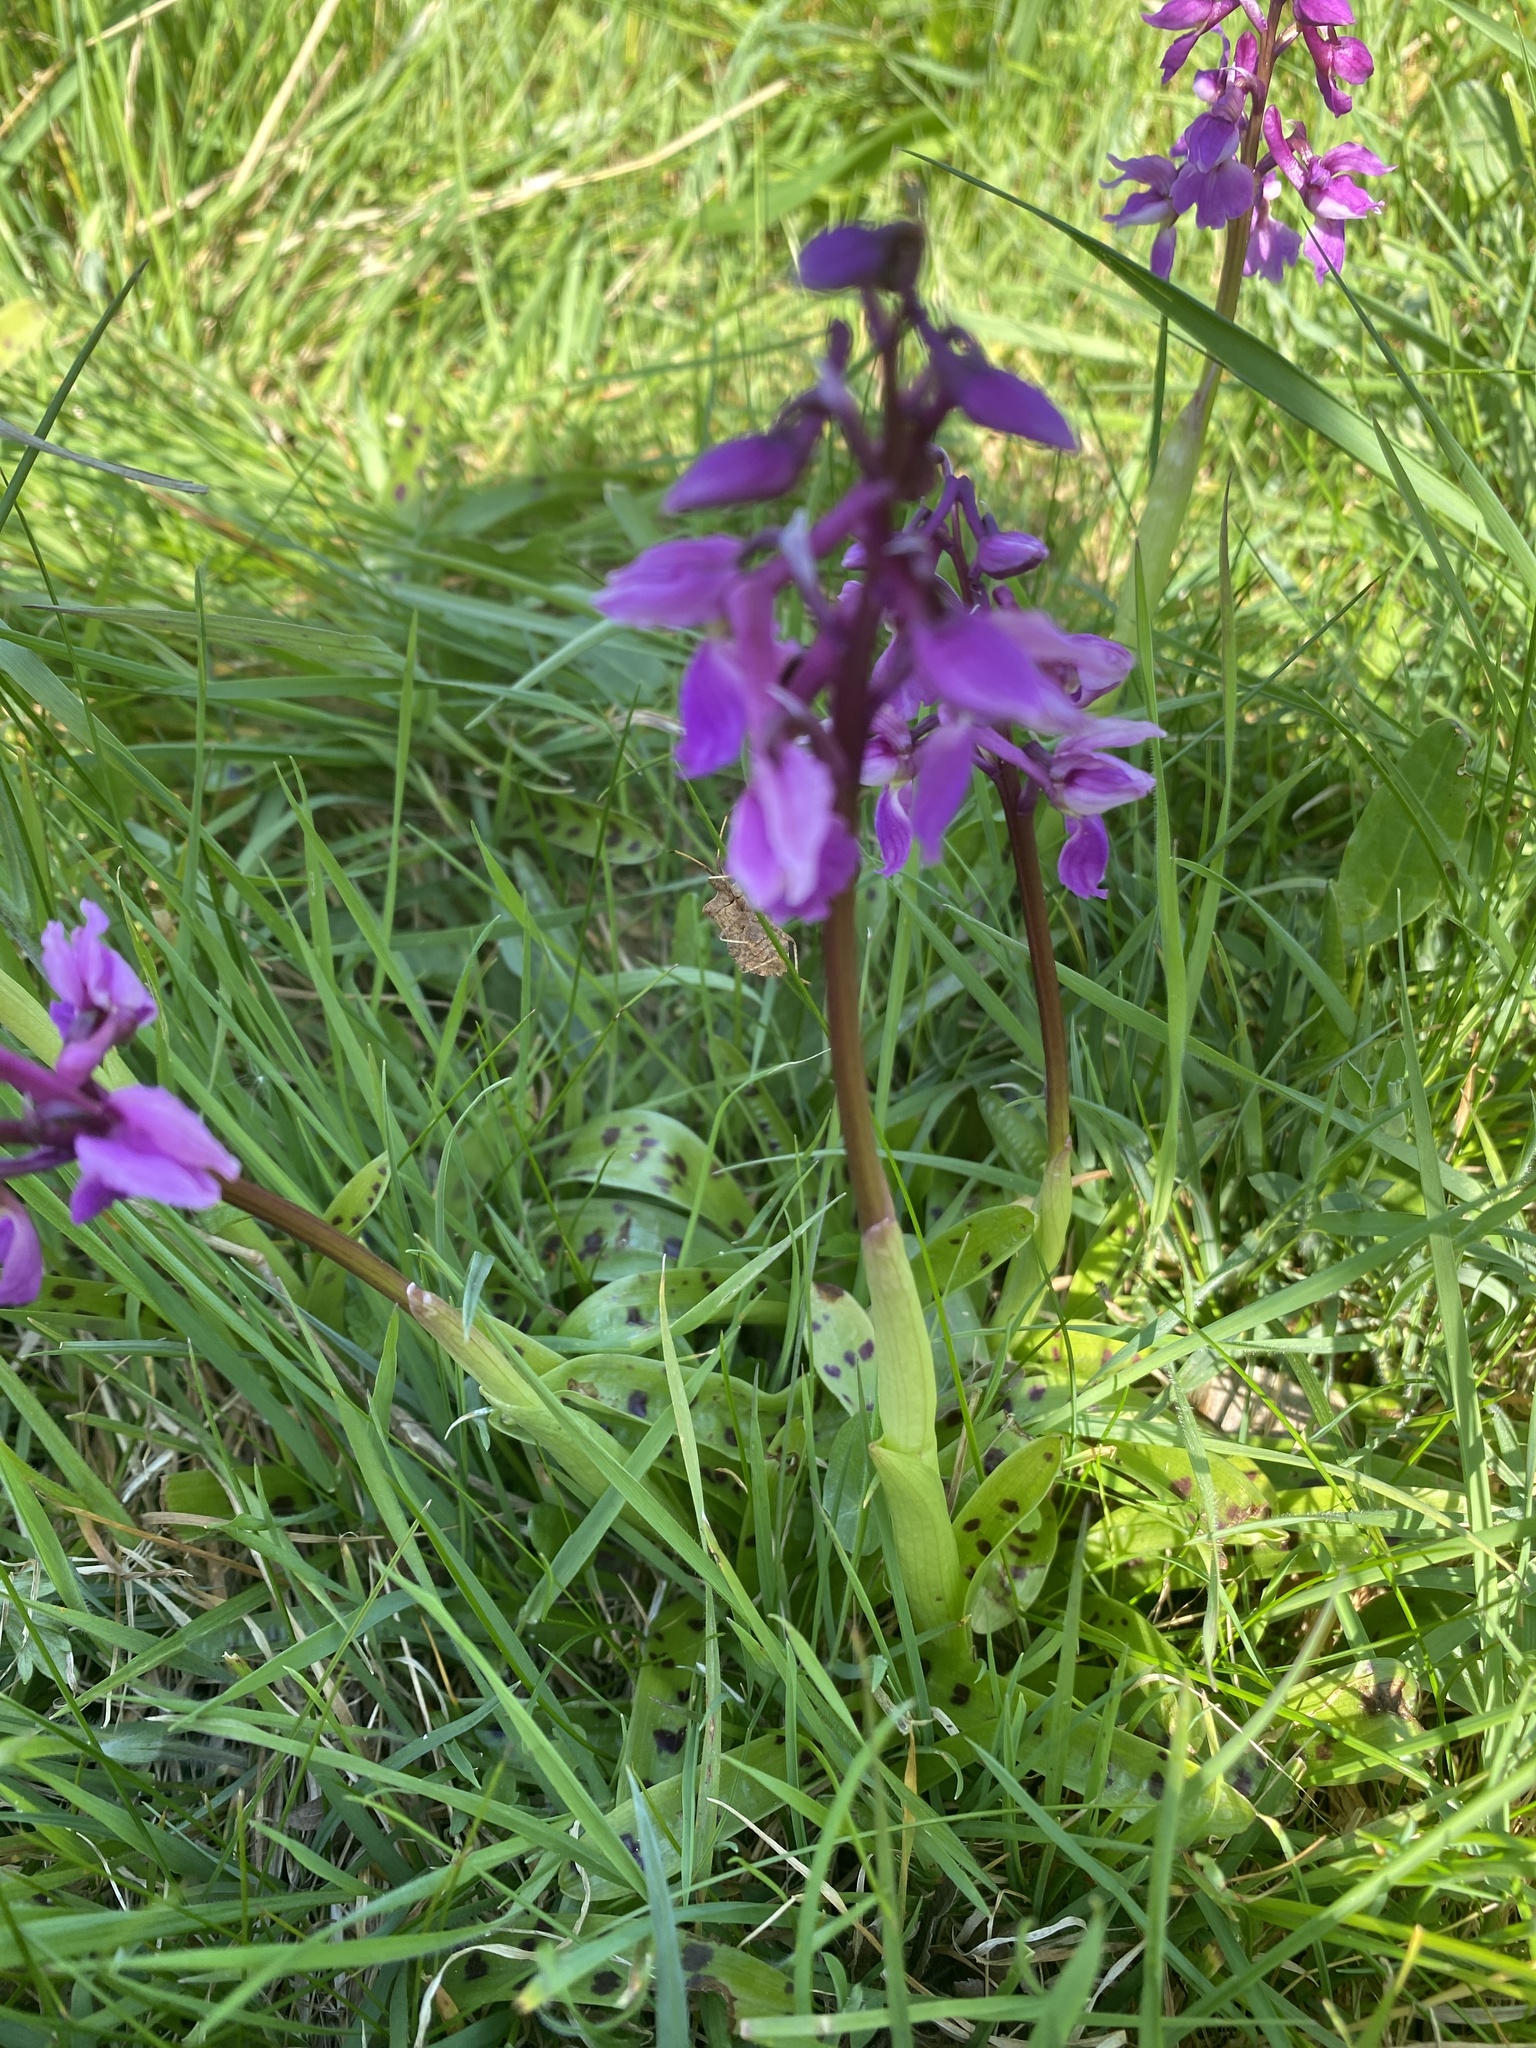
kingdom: Plantae
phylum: Tracheophyta
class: Liliopsida
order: Asparagales
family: Orchidaceae
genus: Orchis
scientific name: Orchis mascula
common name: Early-purple orchid
